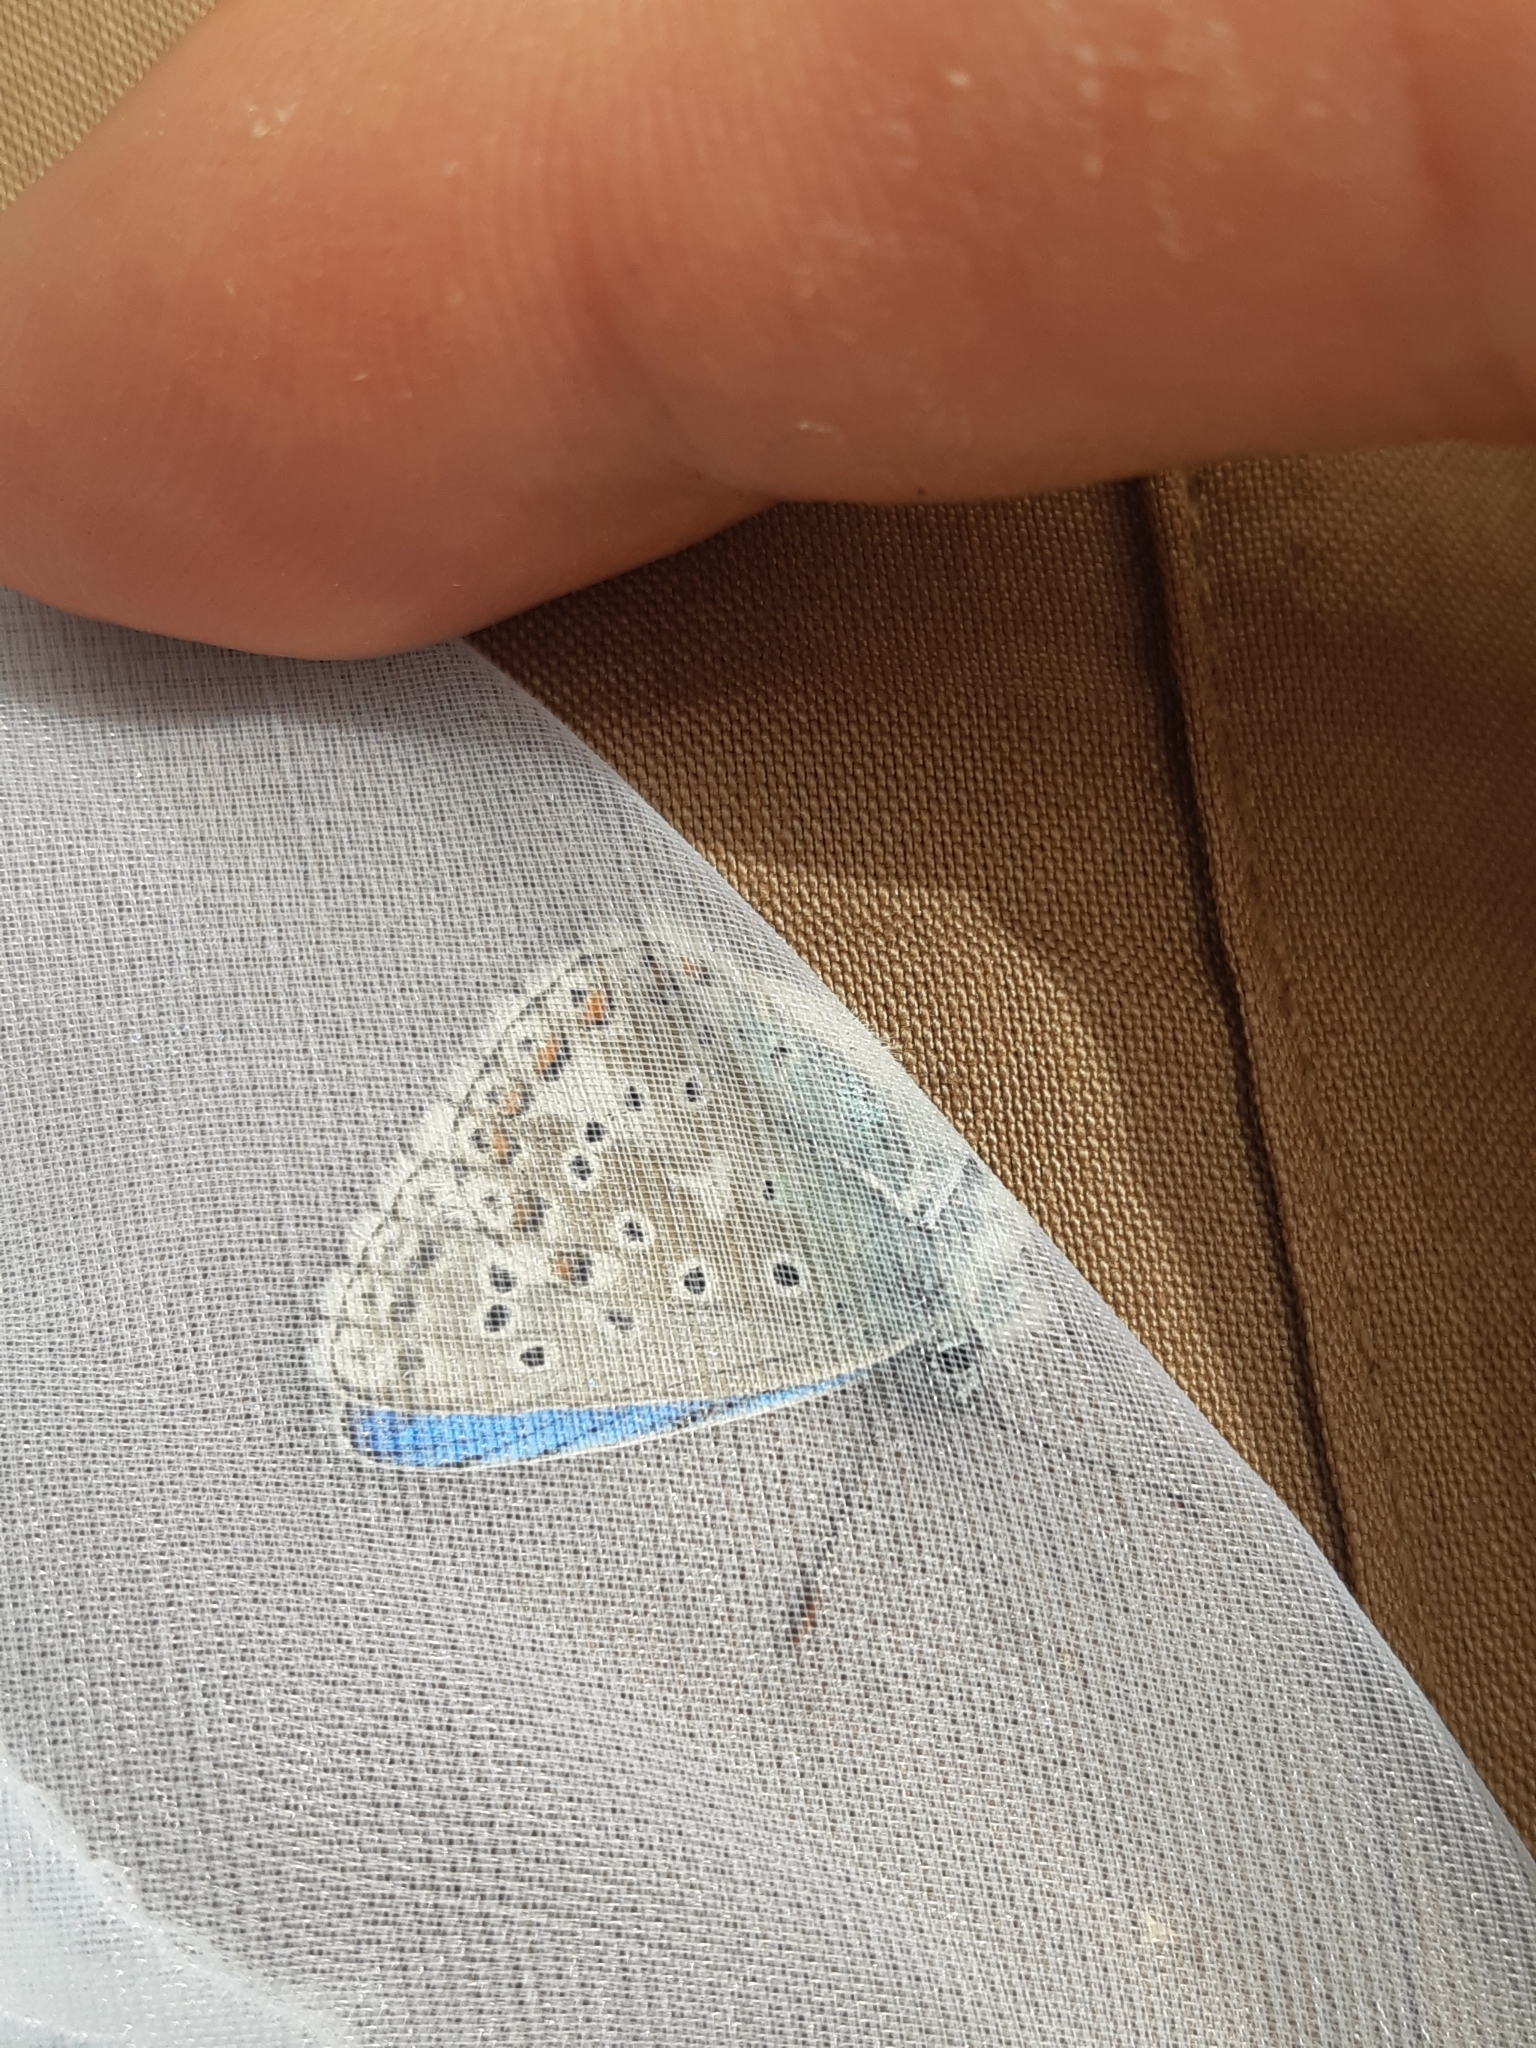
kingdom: Animalia
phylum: Arthropoda
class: Insecta
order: Lepidoptera
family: Lycaenidae
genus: Lysandra
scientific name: Lysandra bellargus
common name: Adonis blue
